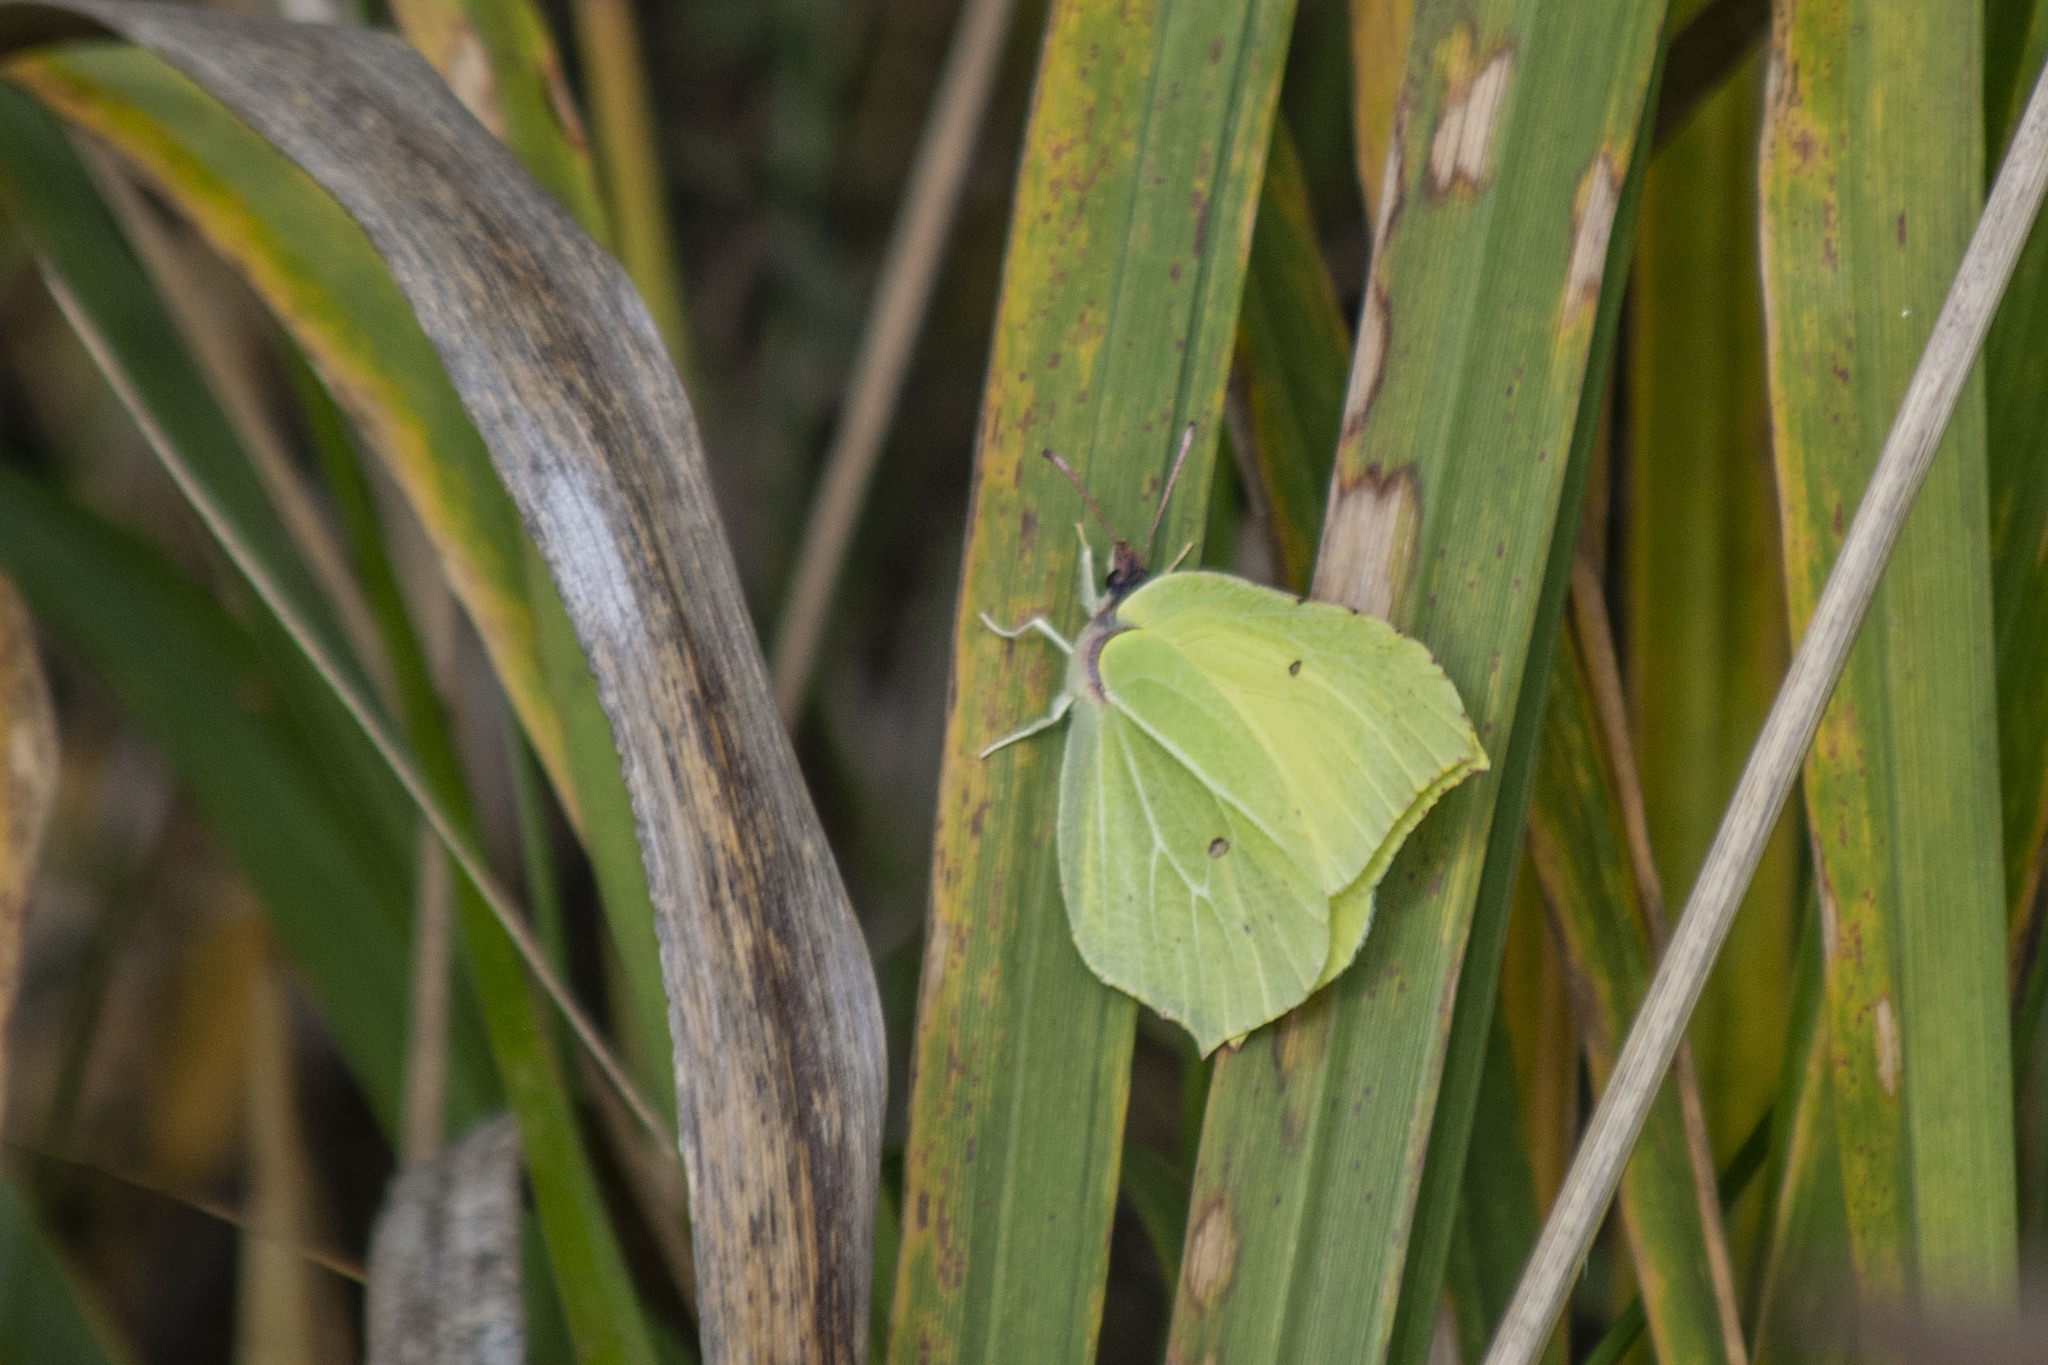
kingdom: Animalia
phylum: Arthropoda
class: Insecta
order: Lepidoptera
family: Pieridae
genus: Gonepteryx
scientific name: Gonepteryx rhamni
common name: Brimstone
